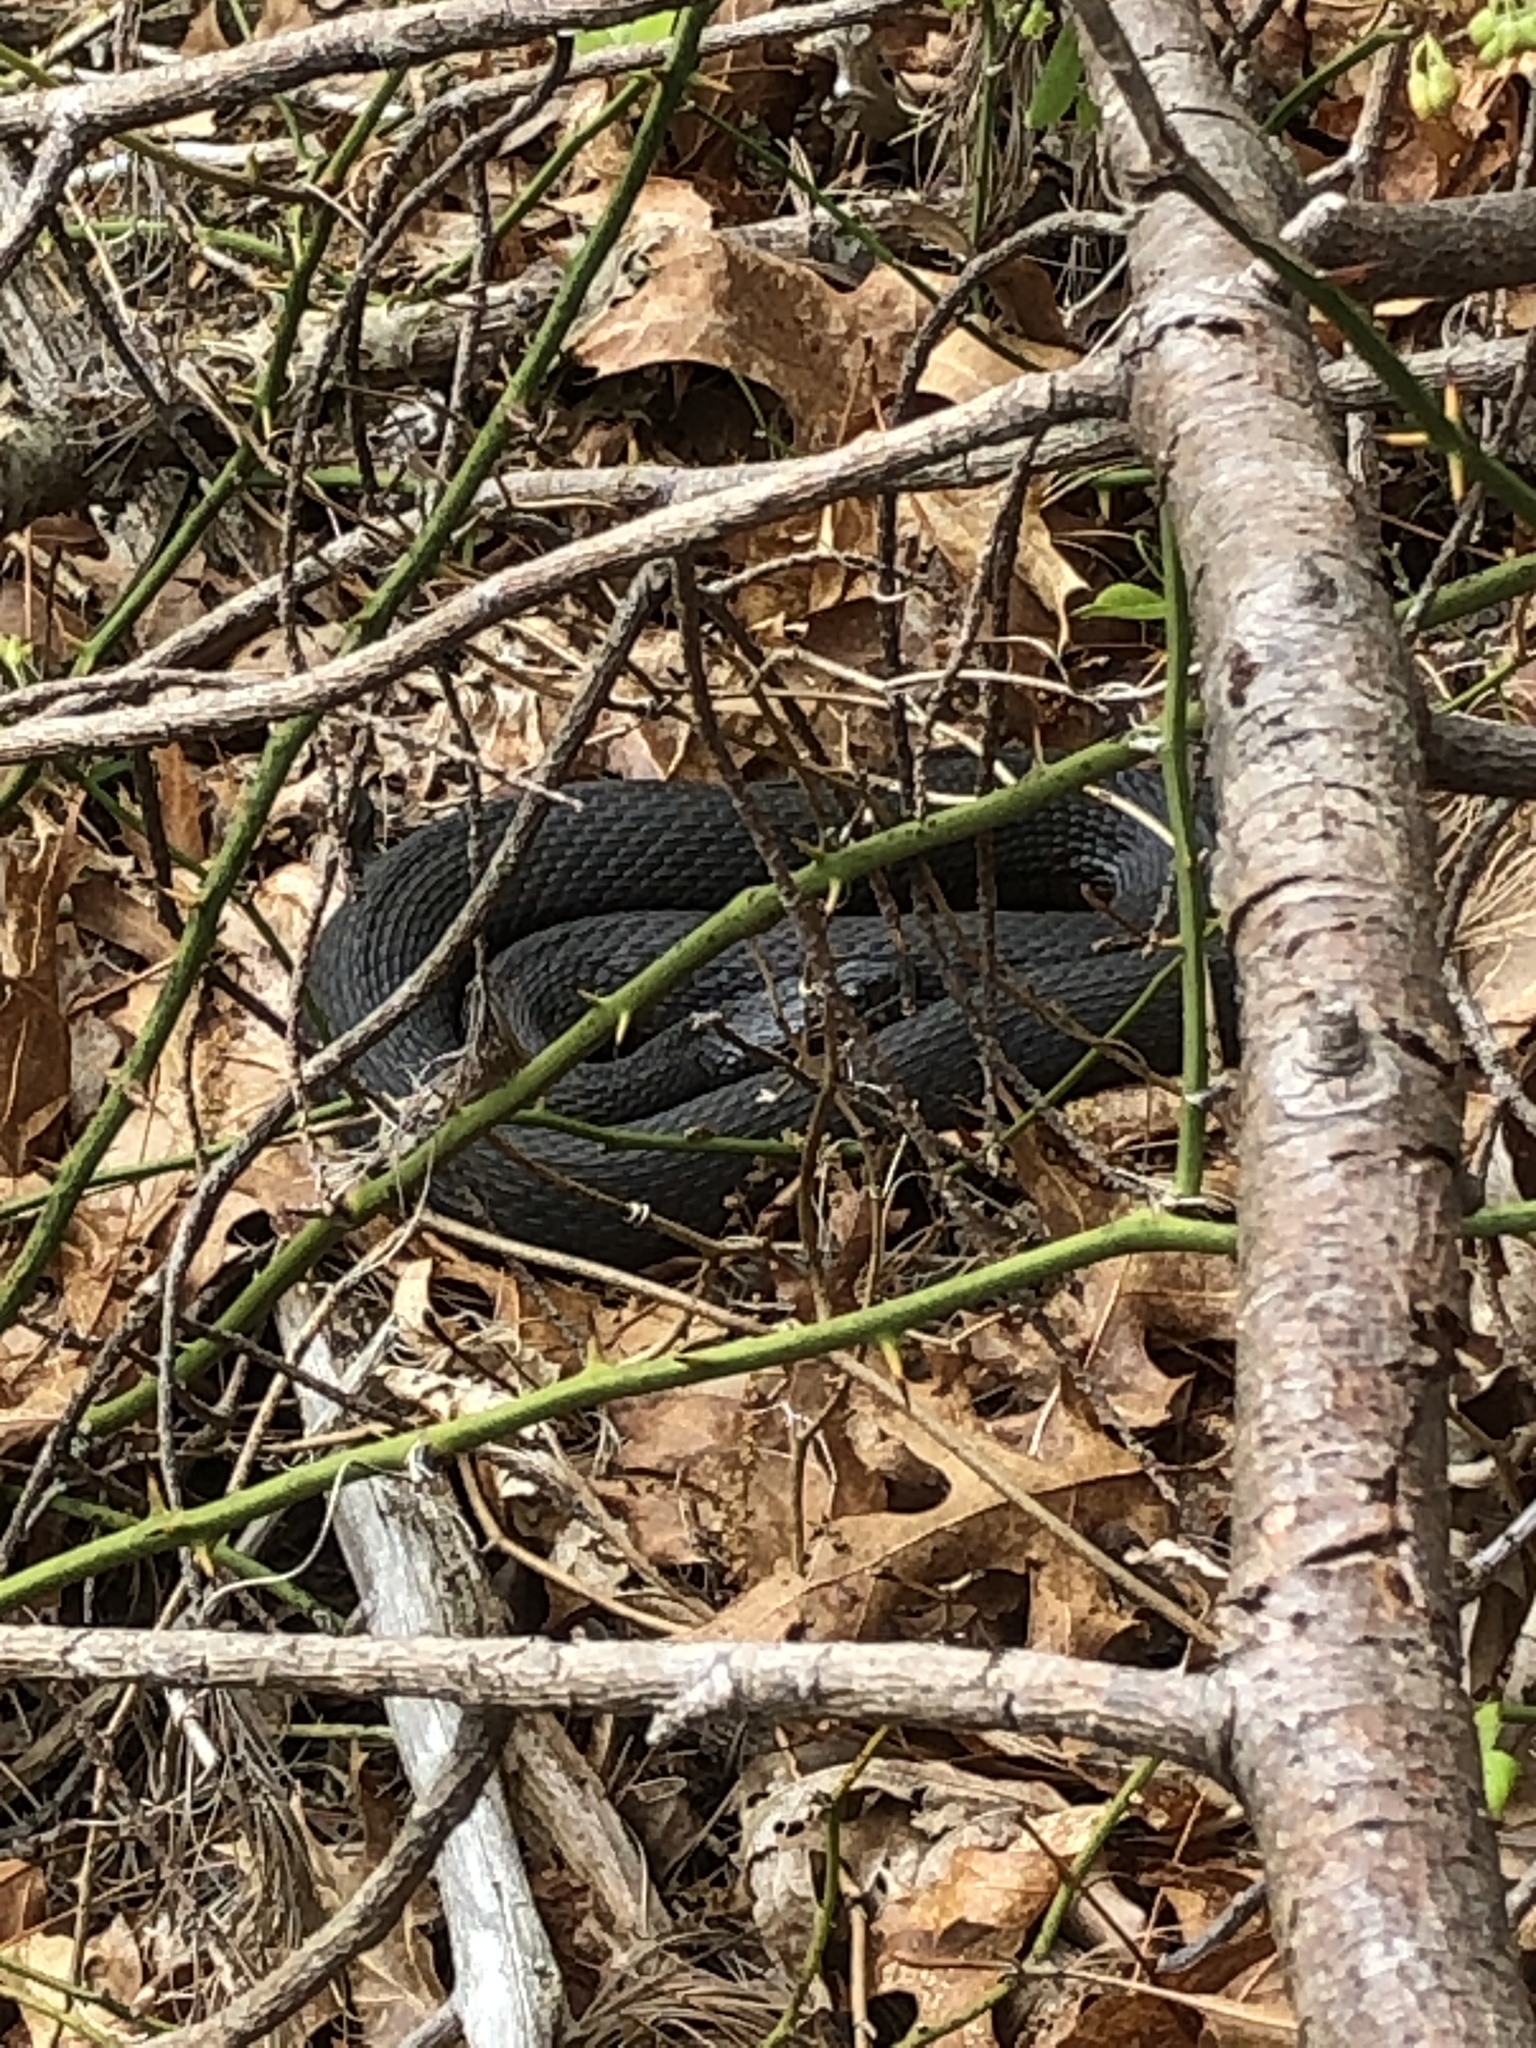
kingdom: Animalia
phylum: Chordata
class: Squamata
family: Colubridae
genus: Nerodia
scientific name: Nerodia sipedon
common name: Northern water snake
